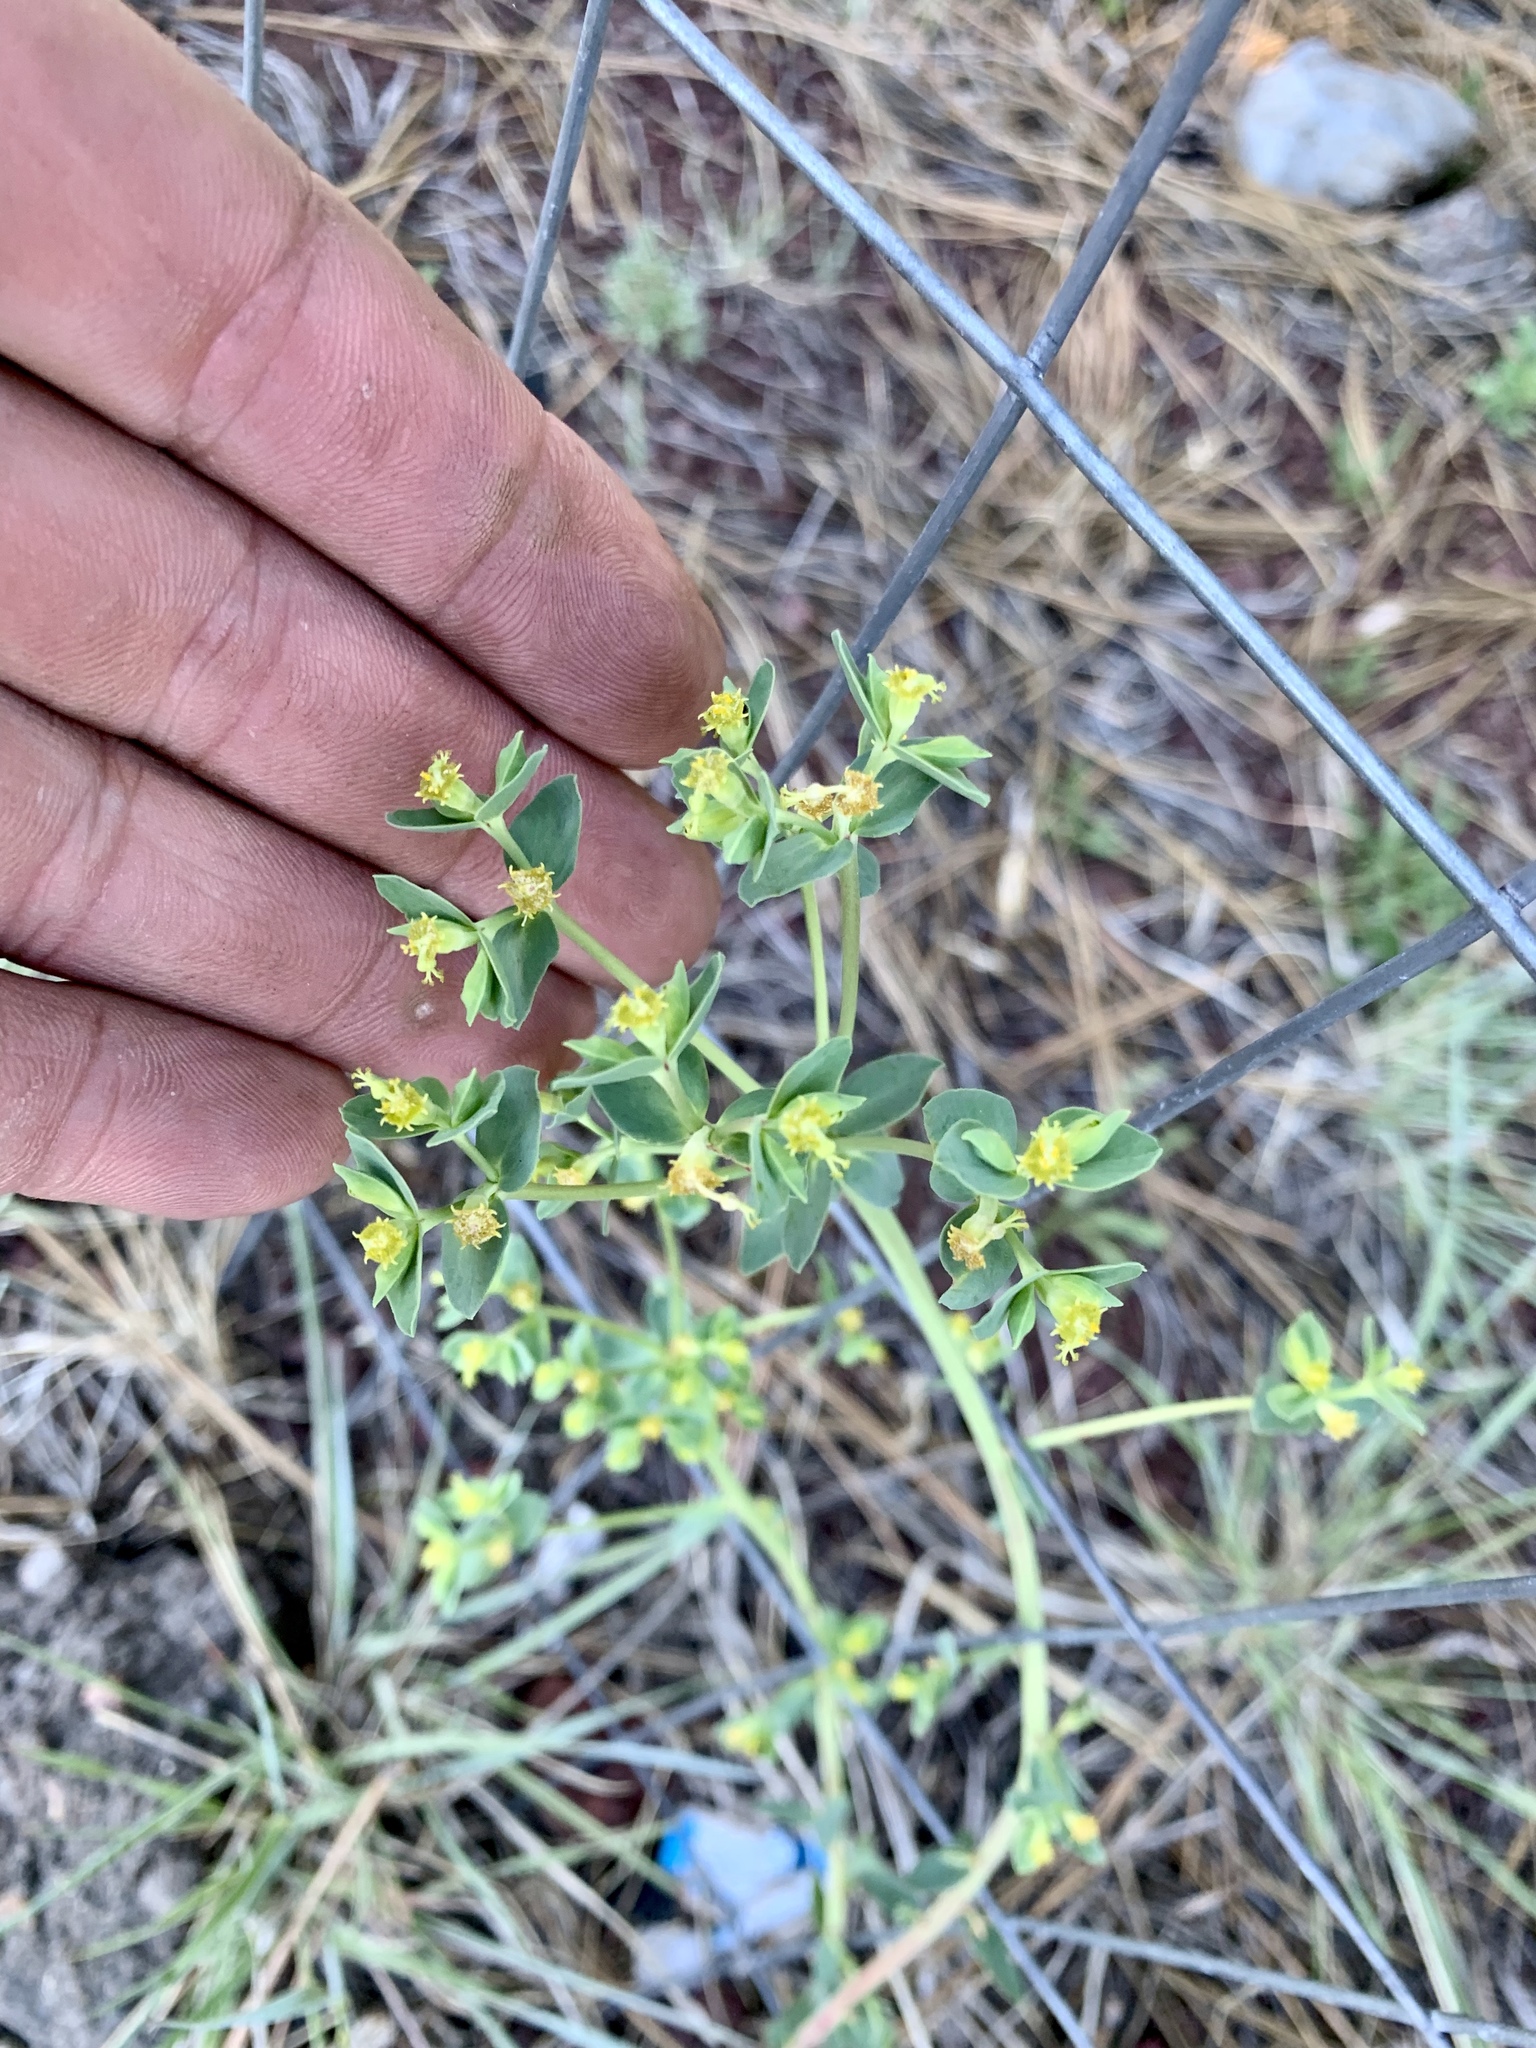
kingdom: Plantae
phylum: Tracheophyta
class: Magnoliopsida
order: Malpighiales
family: Euphorbiaceae
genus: Euphorbia
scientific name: Euphorbia lurida
